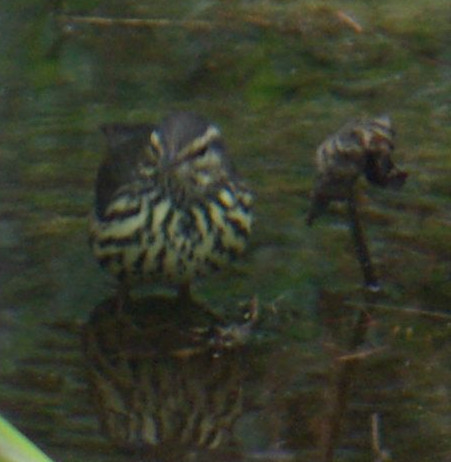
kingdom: Animalia
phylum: Chordata
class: Aves
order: Passeriformes
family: Parulidae
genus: Parkesia
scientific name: Parkesia noveboracensis
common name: Northern waterthrush
